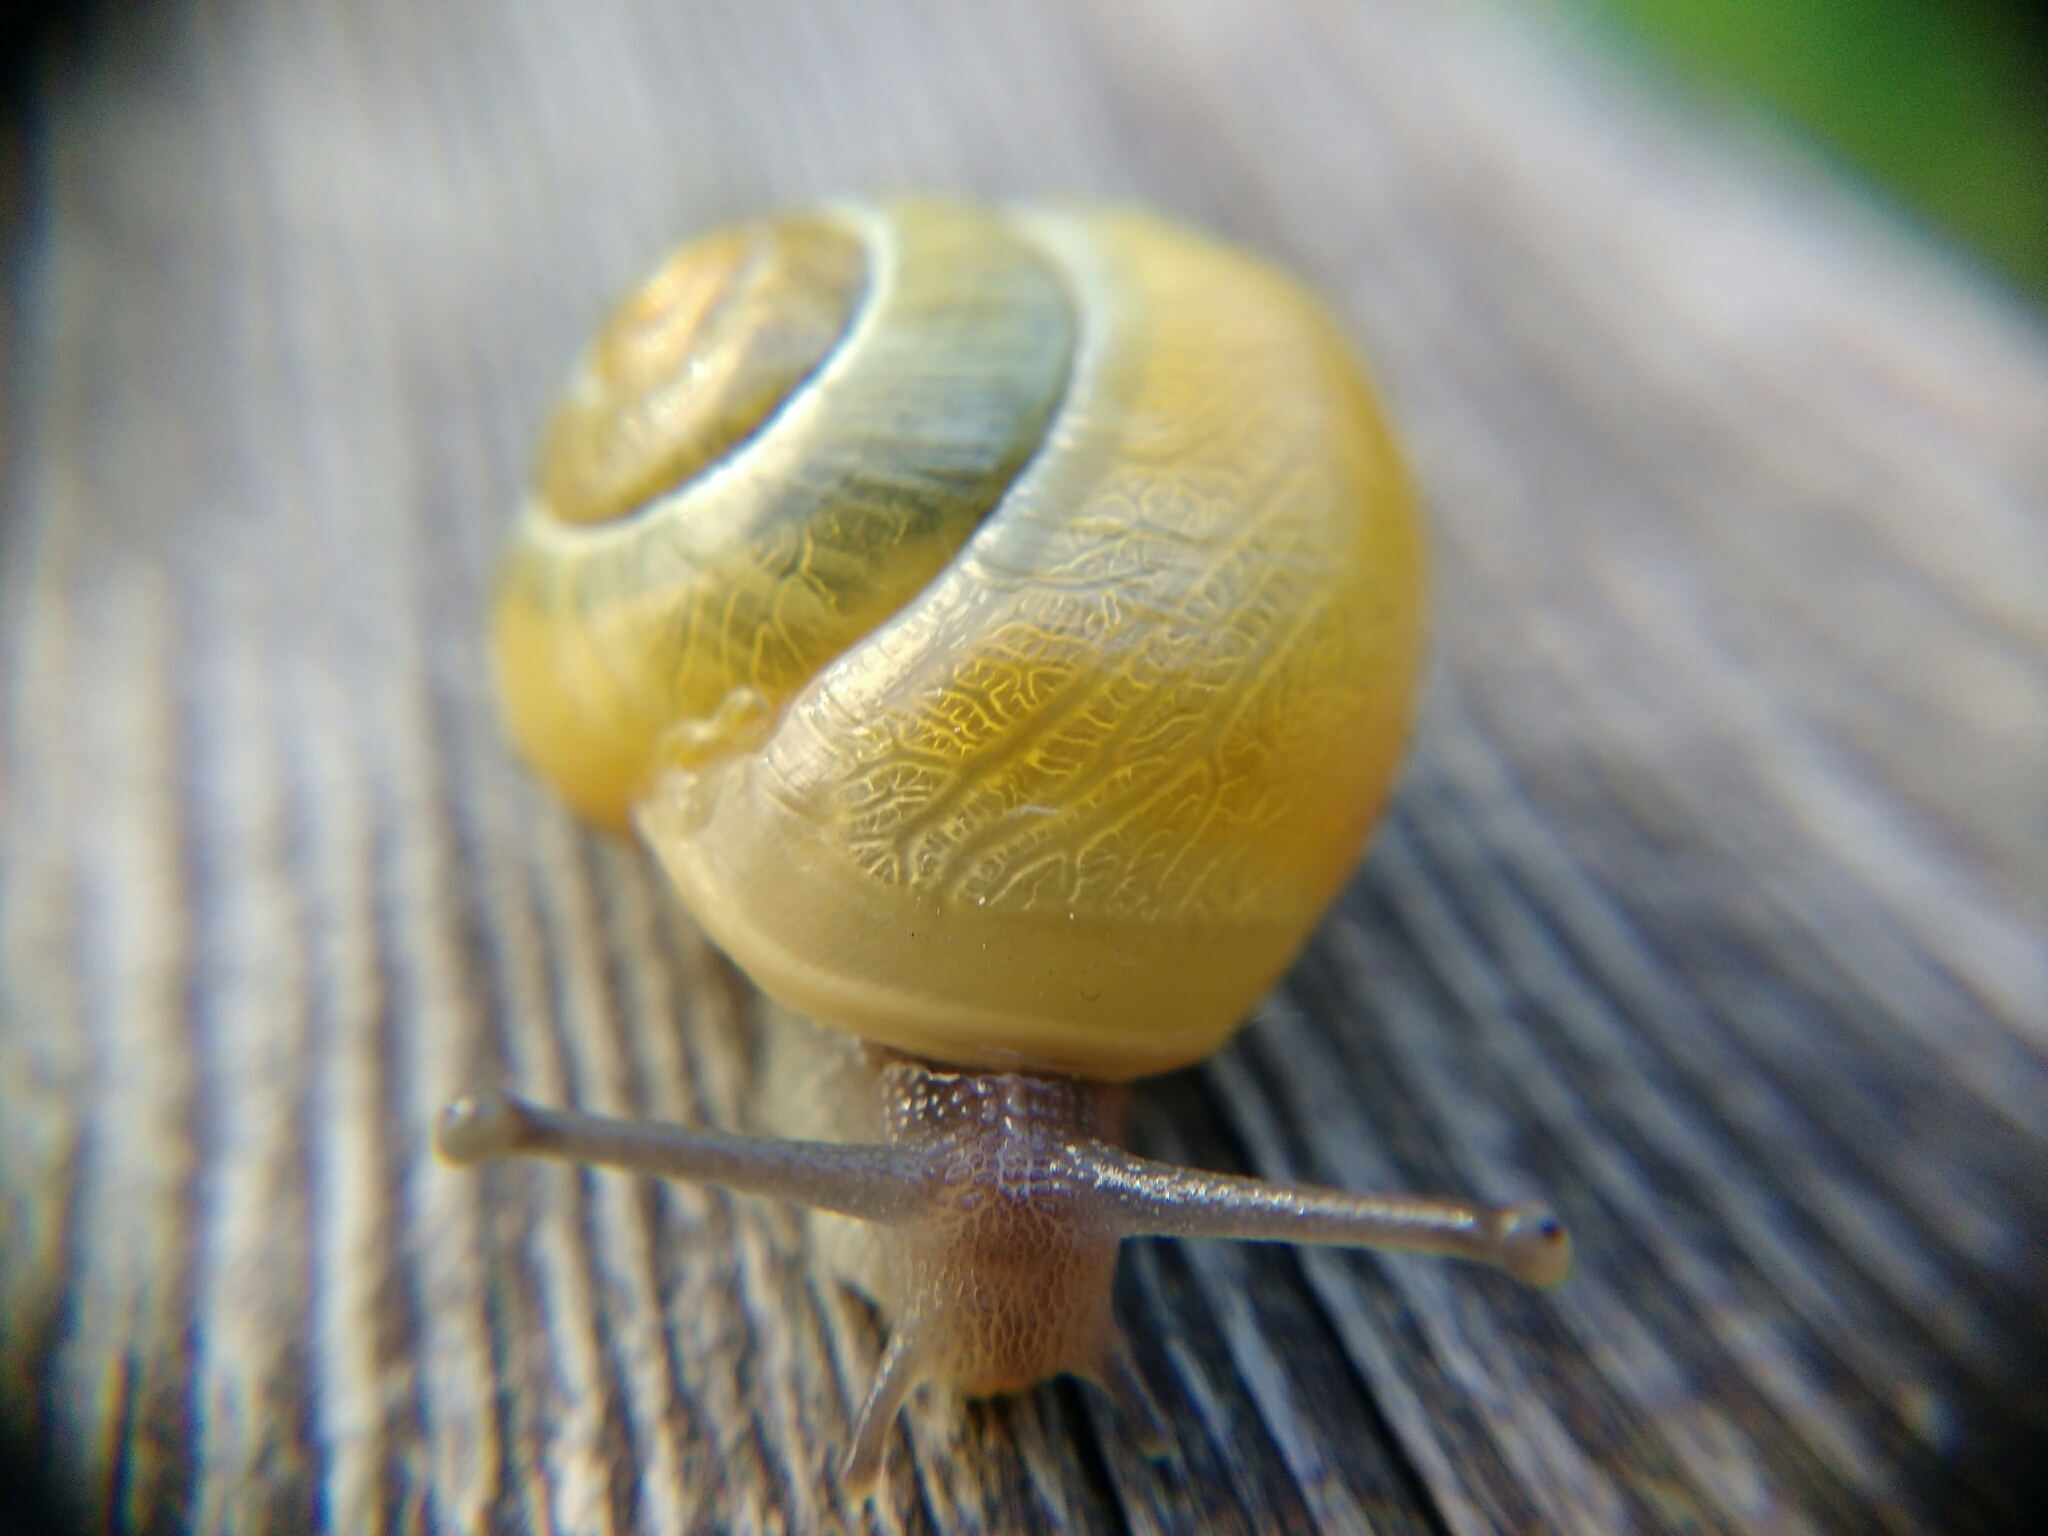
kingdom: Animalia
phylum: Mollusca
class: Gastropoda
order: Stylommatophora
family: Helicidae
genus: Cepaea
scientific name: Cepaea
